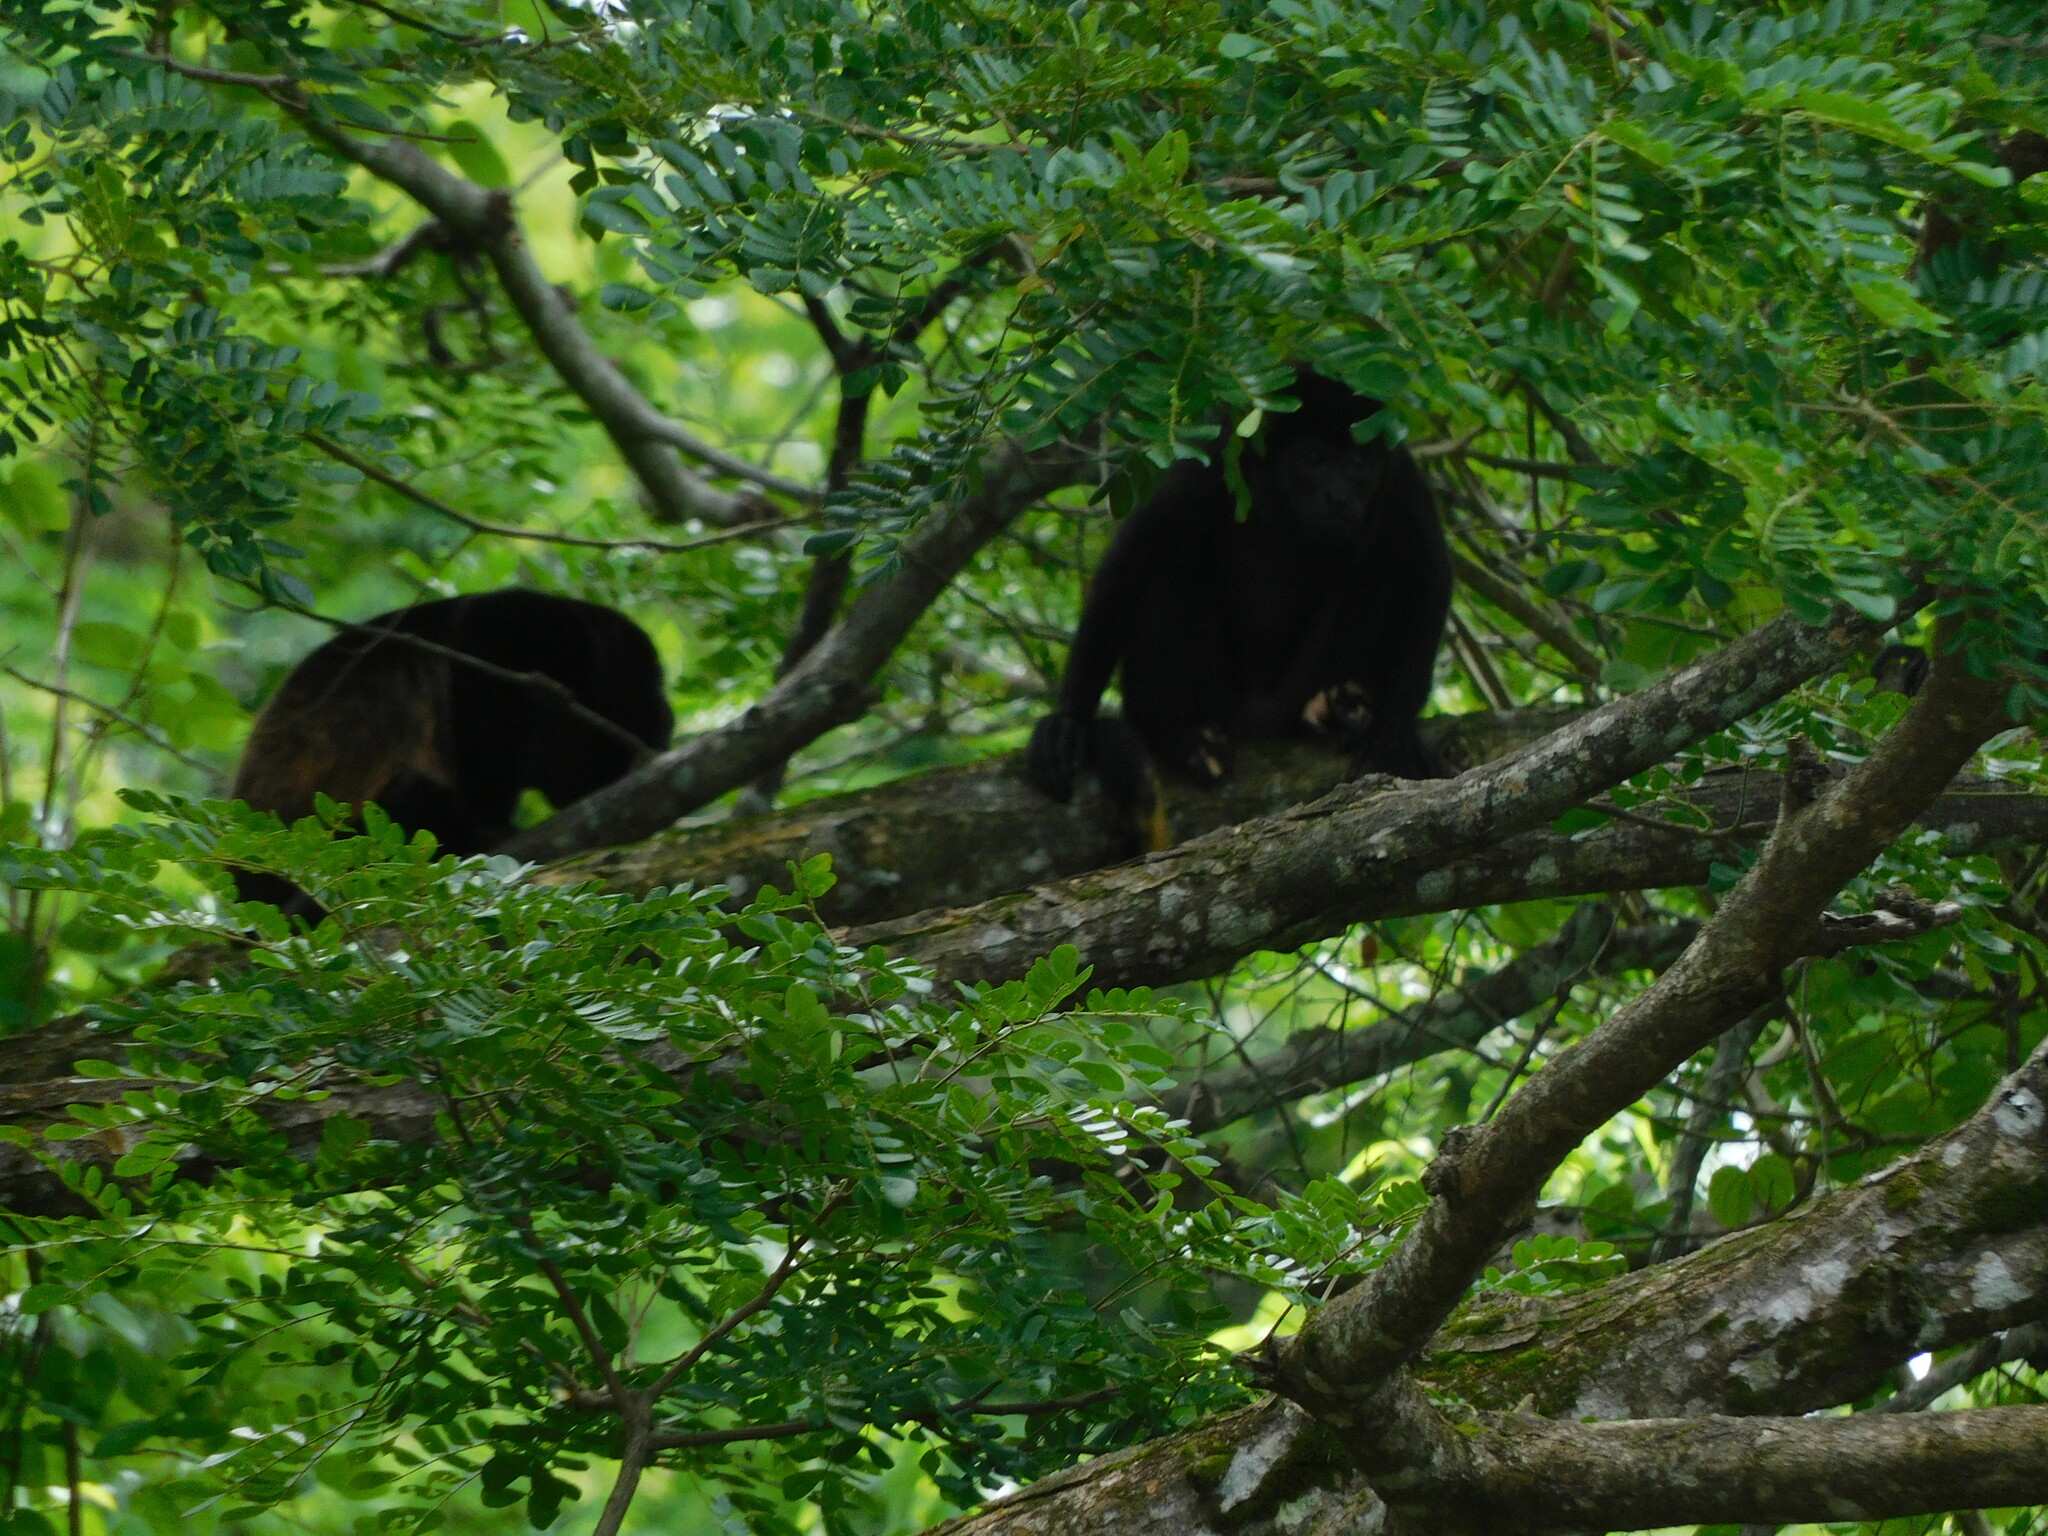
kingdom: Animalia
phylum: Chordata
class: Mammalia
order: Primates
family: Atelidae
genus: Alouatta
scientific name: Alouatta palliata
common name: Mantled howler
